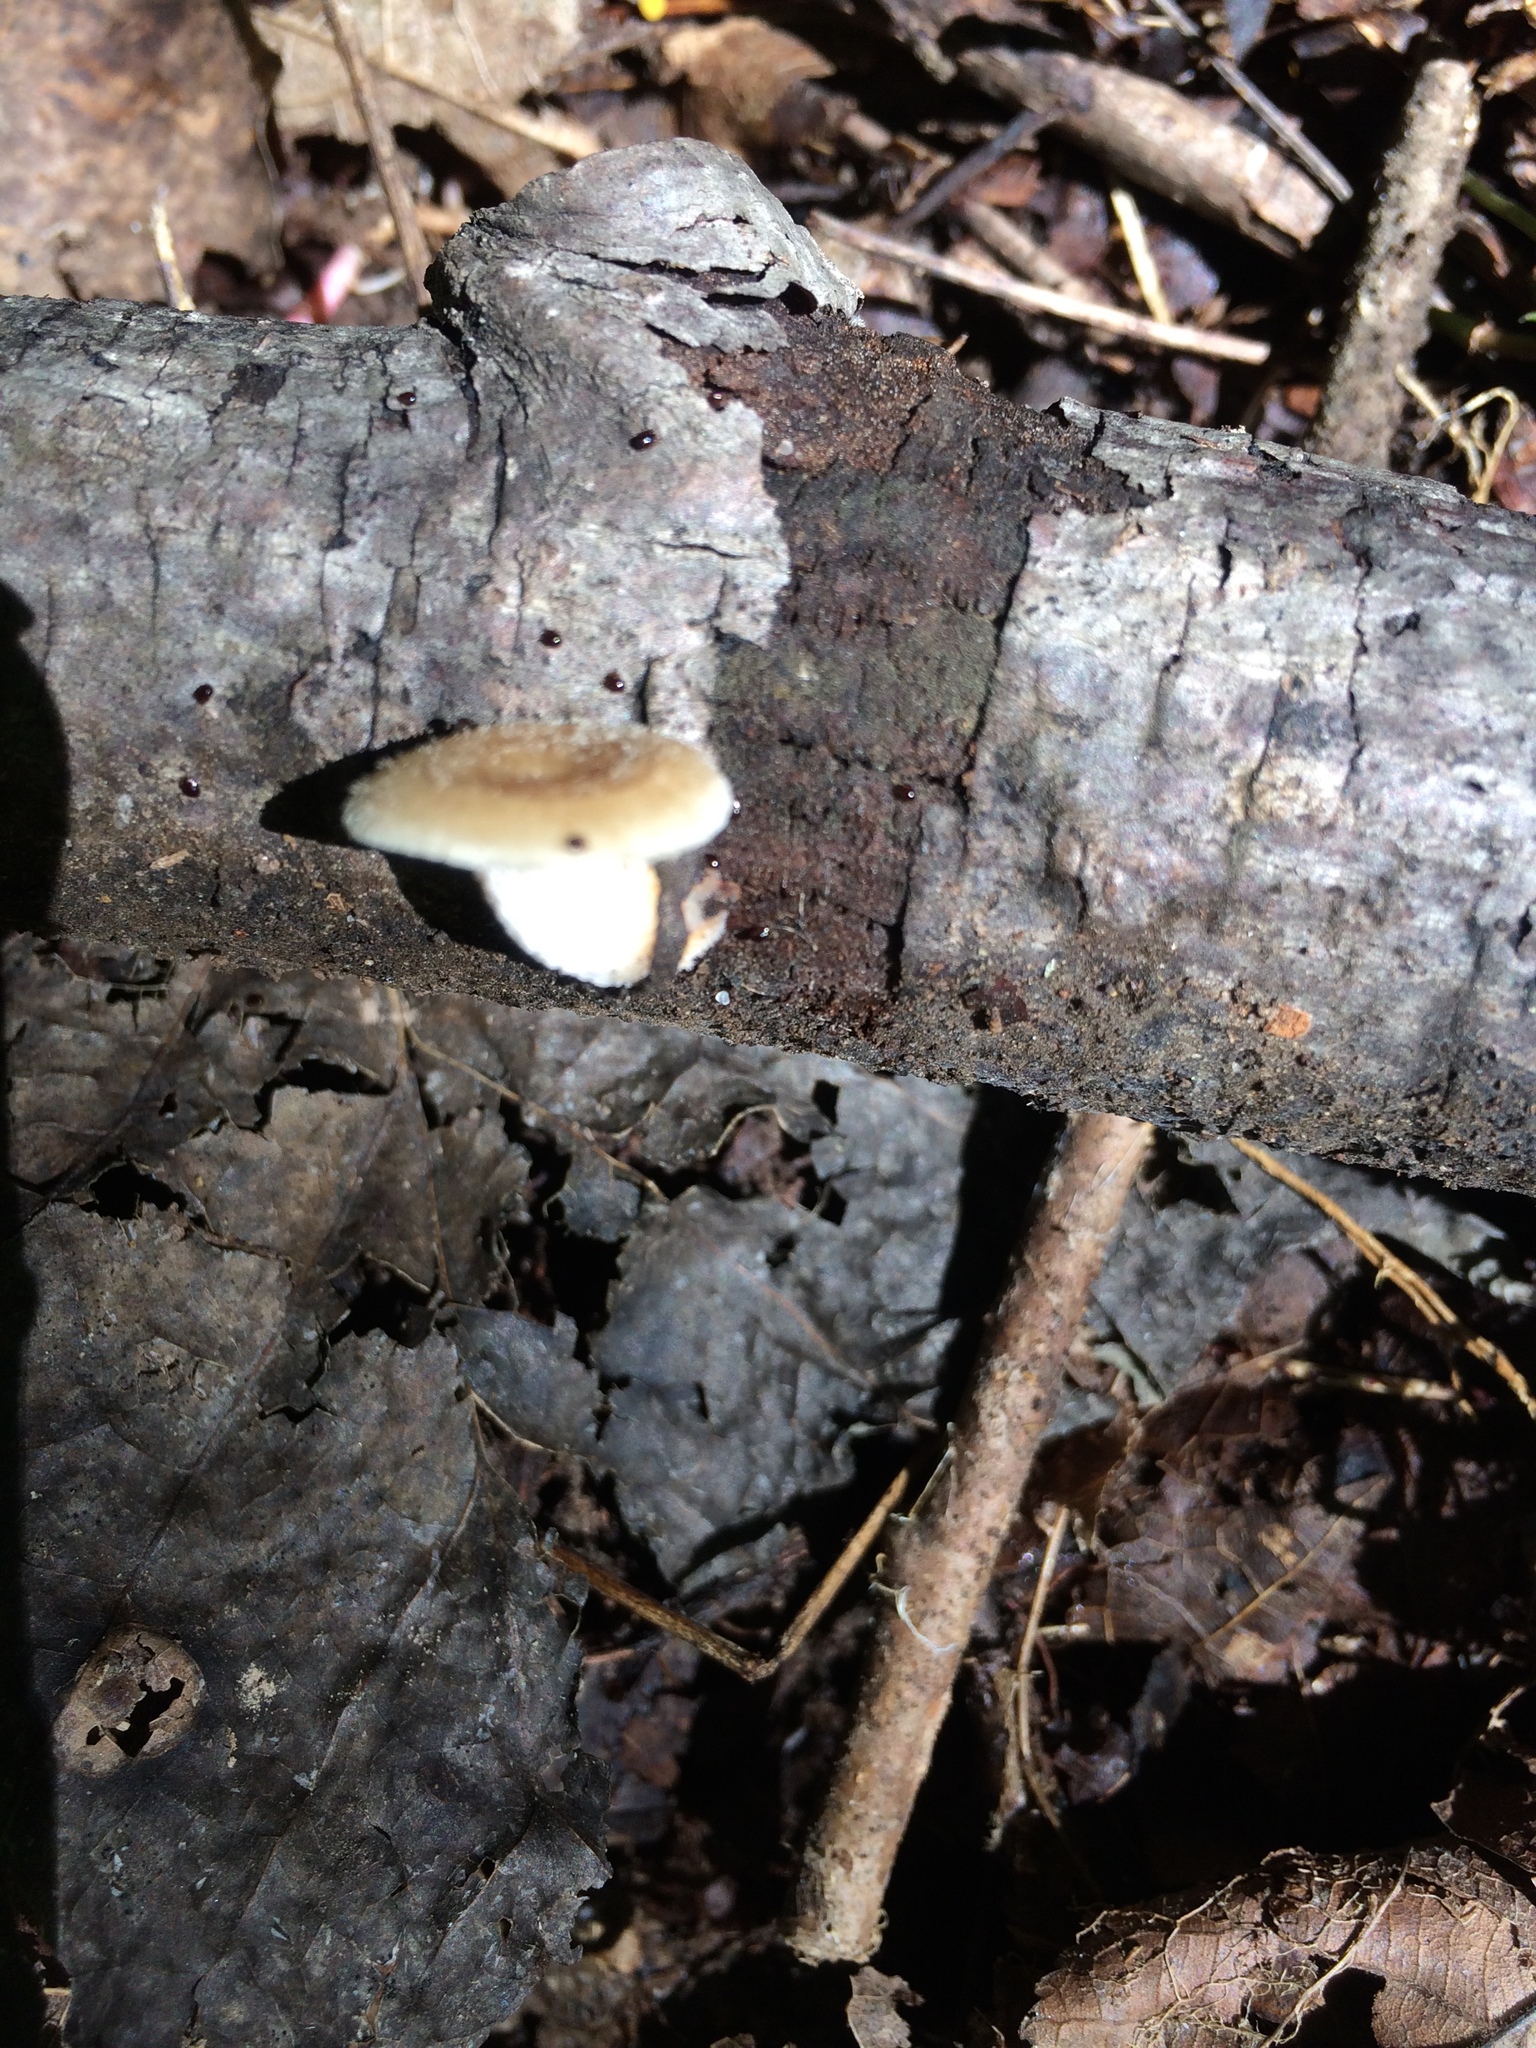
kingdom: Fungi
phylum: Basidiomycota
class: Agaricomycetes
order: Polyporales
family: Polyporaceae
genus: Neofavolus
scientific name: Neofavolus alveolaris
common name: Hexagonal-pored polypore
